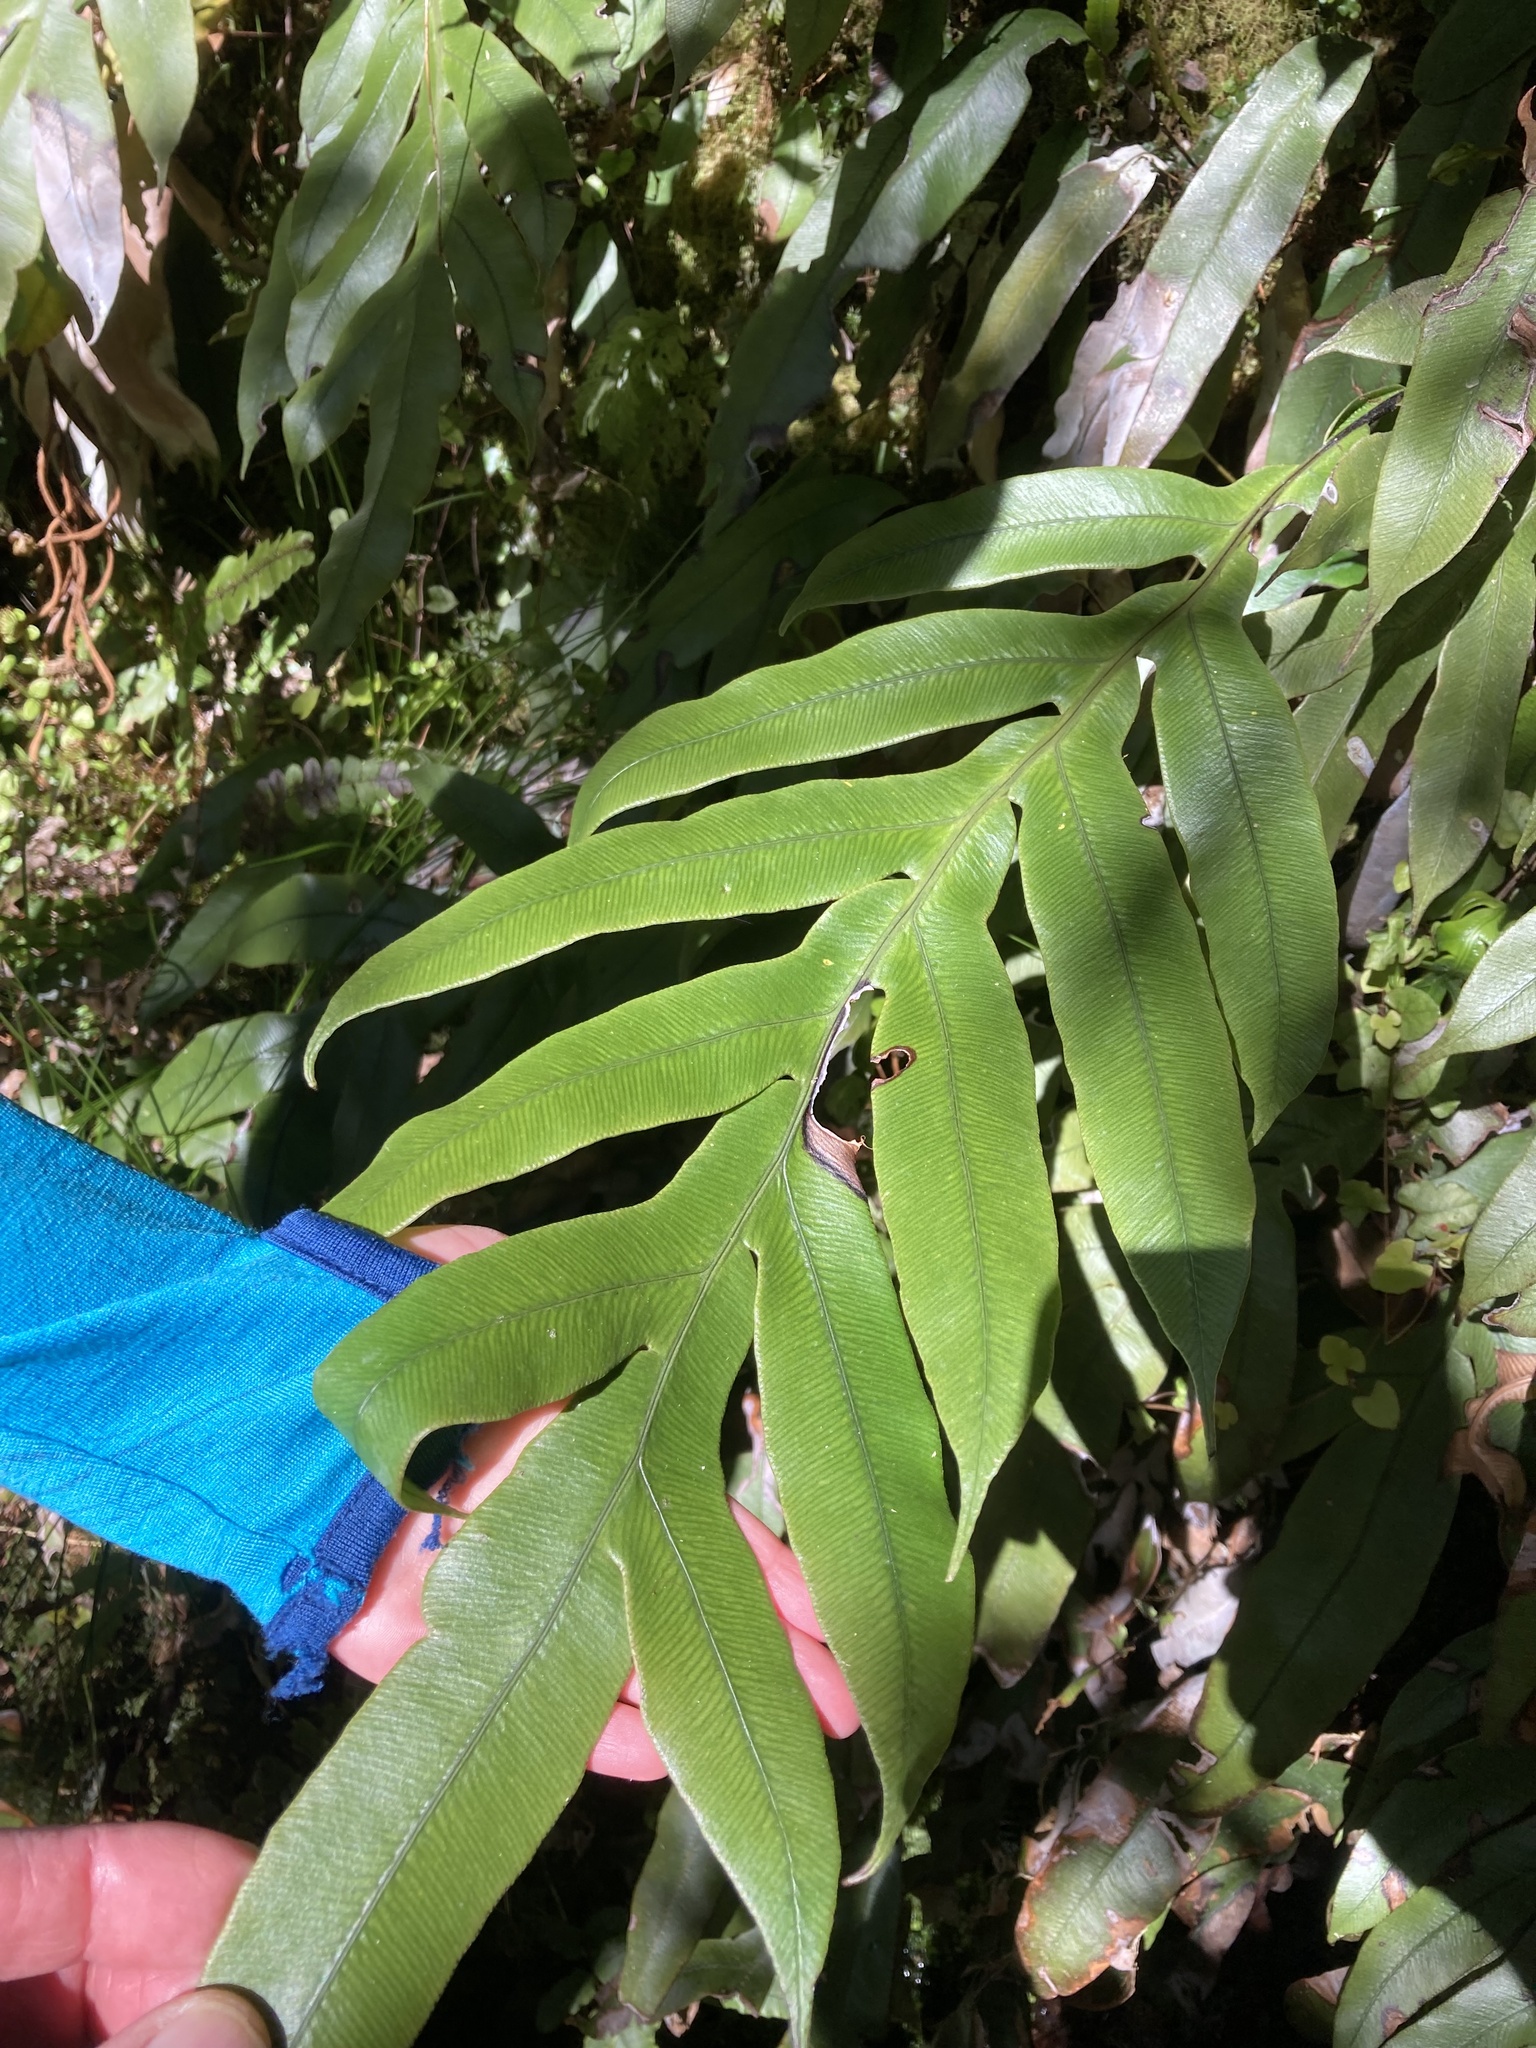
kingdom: Plantae
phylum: Tracheophyta
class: Polypodiopsida
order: Polypodiales
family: Blechnaceae
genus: Austroblechnum
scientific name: Austroblechnum colensoi
